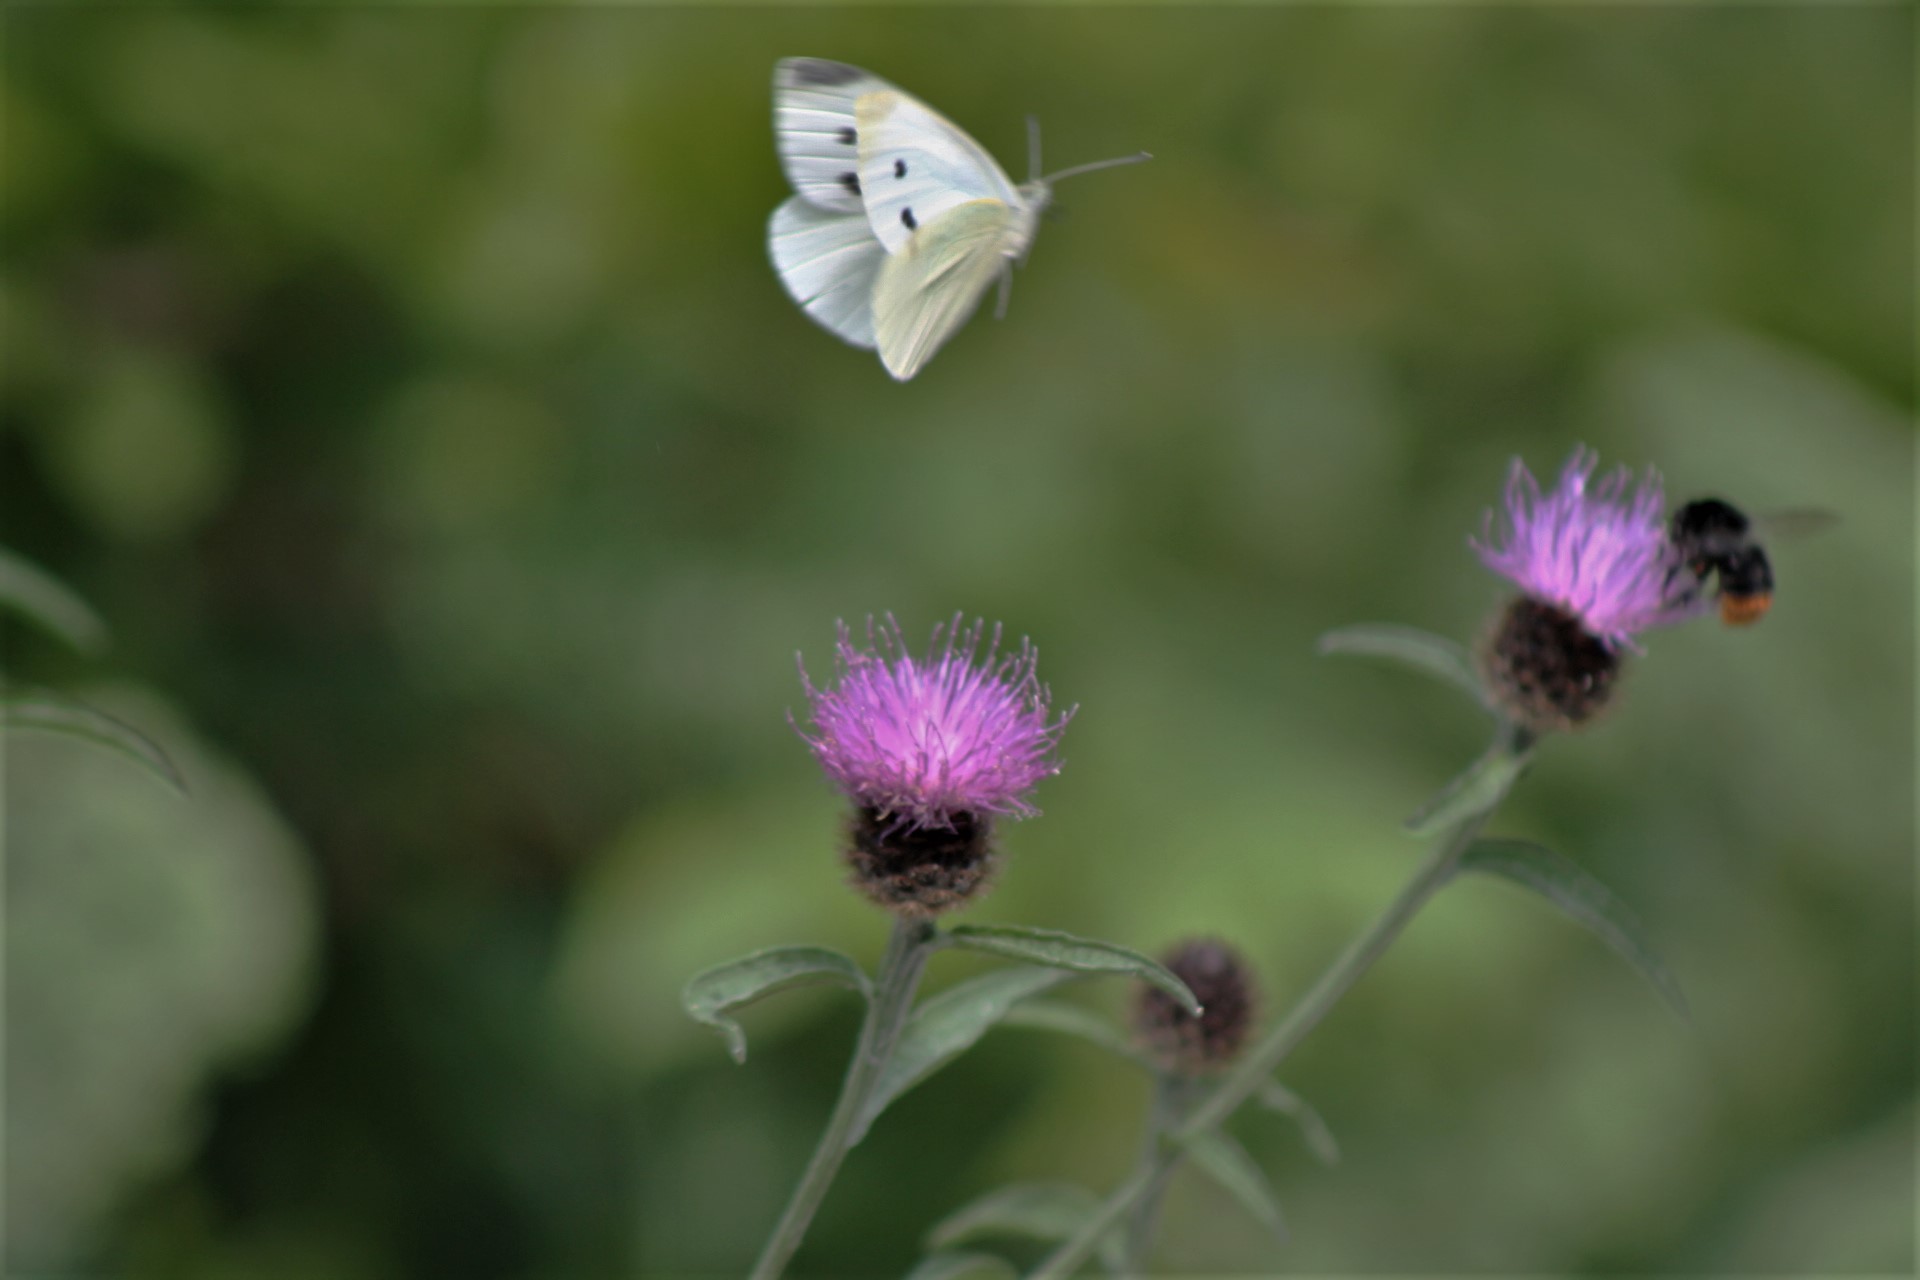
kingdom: Animalia
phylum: Arthropoda
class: Insecta
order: Lepidoptera
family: Pieridae
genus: Pieris
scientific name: Pieris rapae
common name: Small white
